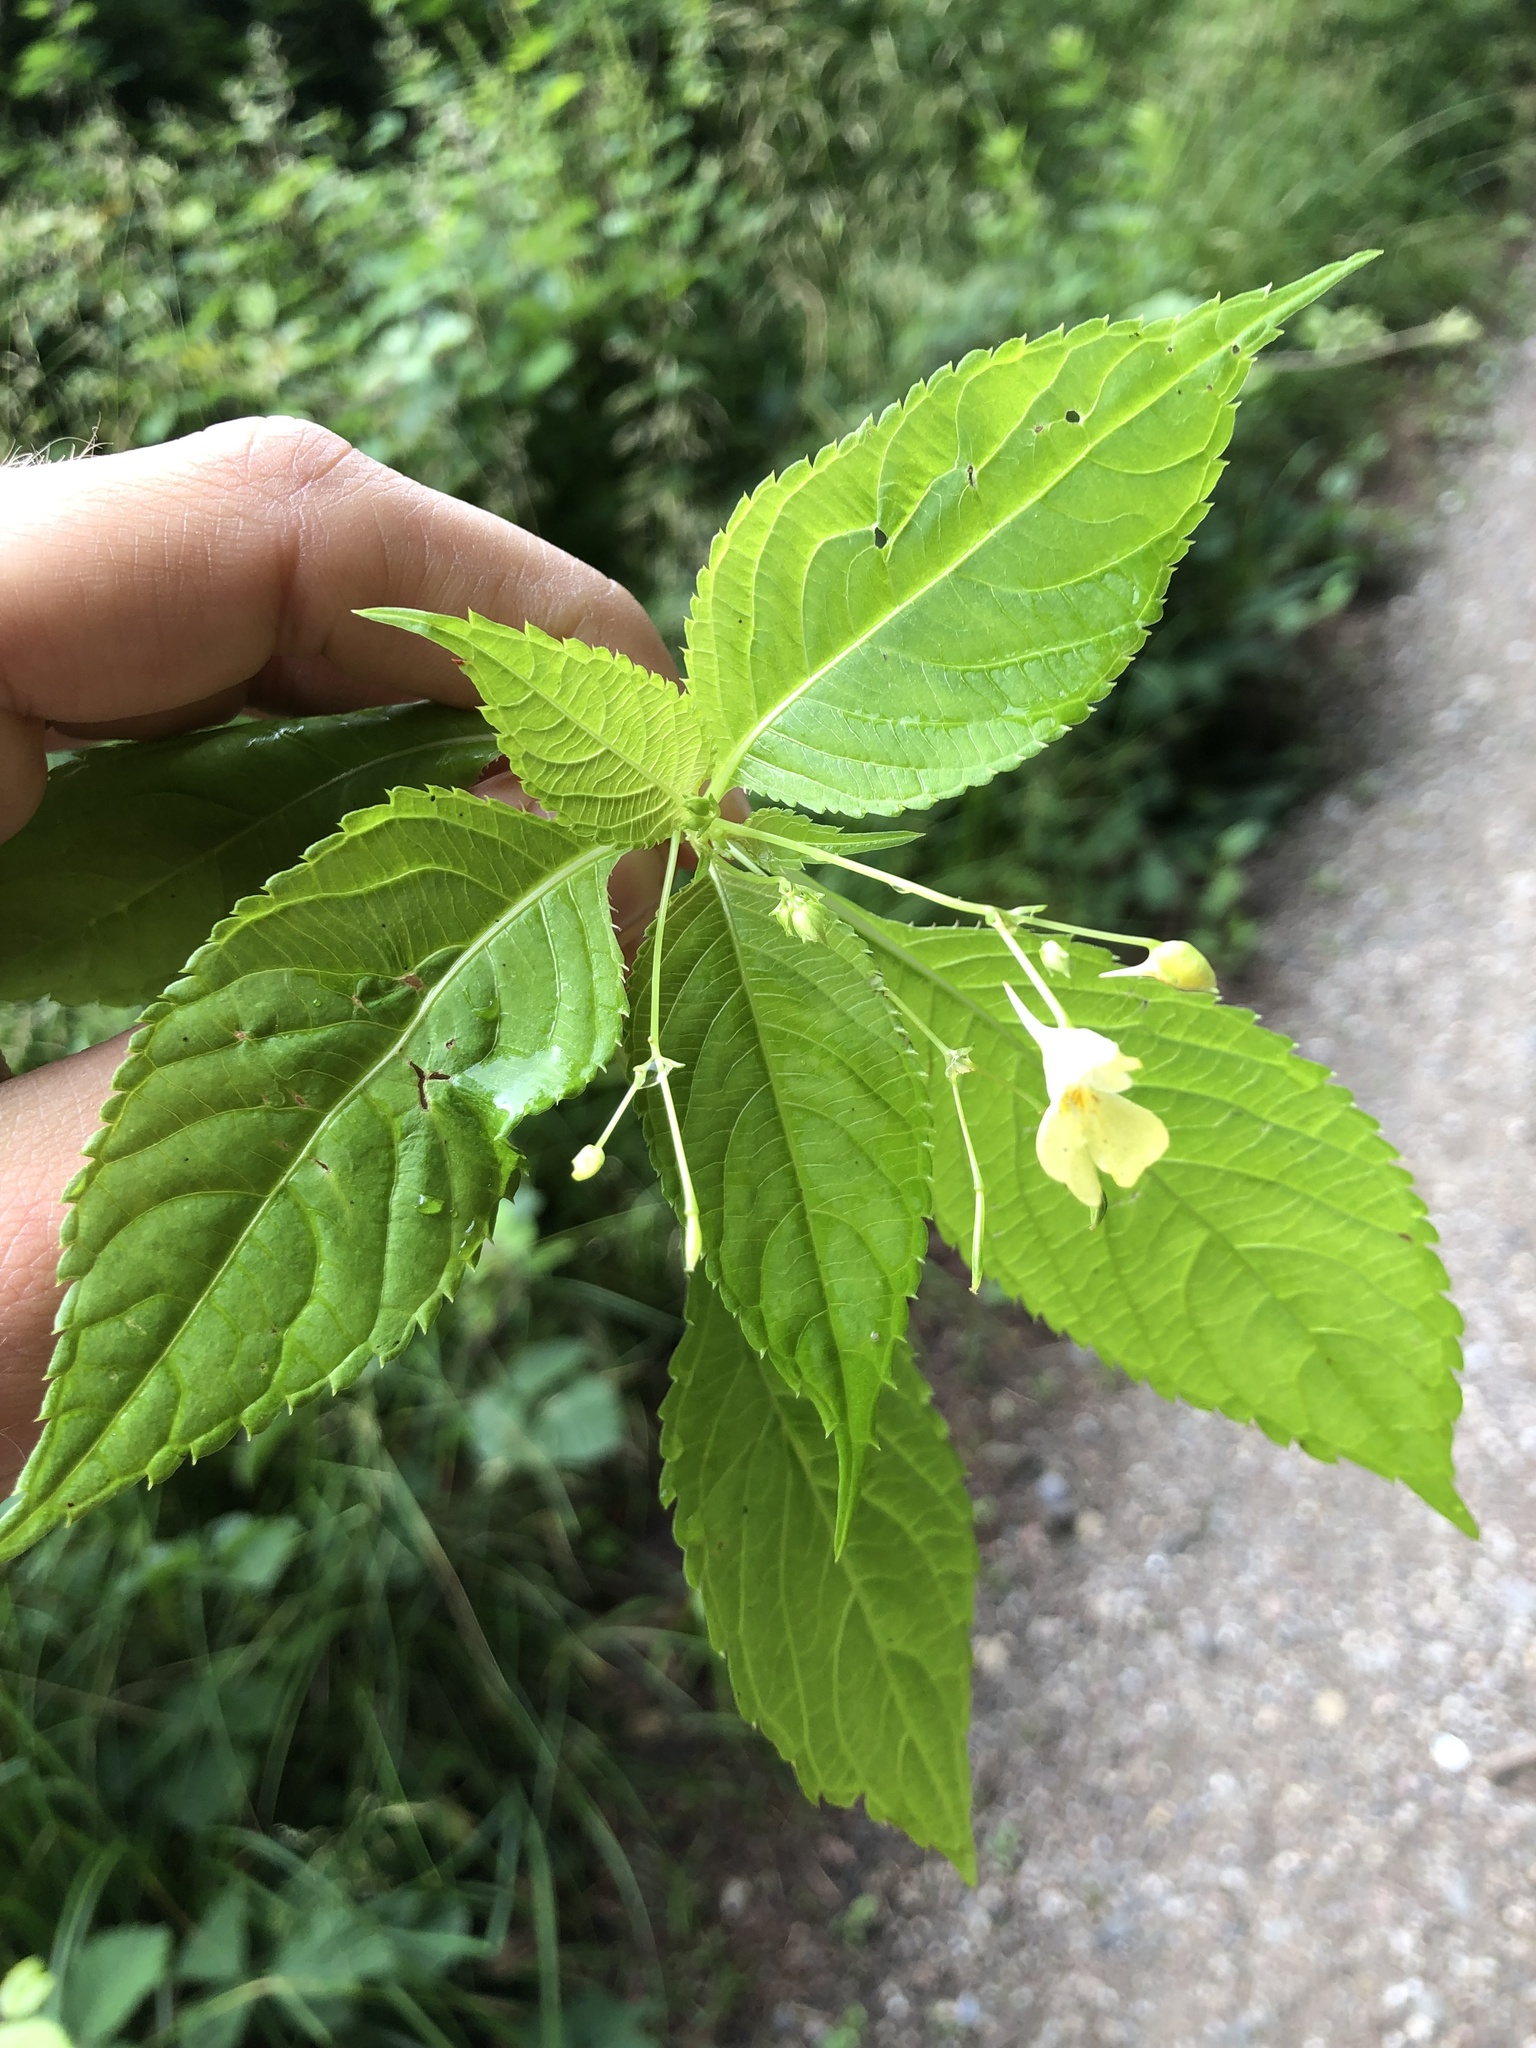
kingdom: Plantae
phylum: Tracheophyta
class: Magnoliopsida
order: Ericales
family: Balsaminaceae
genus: Impatiens
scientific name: Impatiens parviflora
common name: Small balsam
